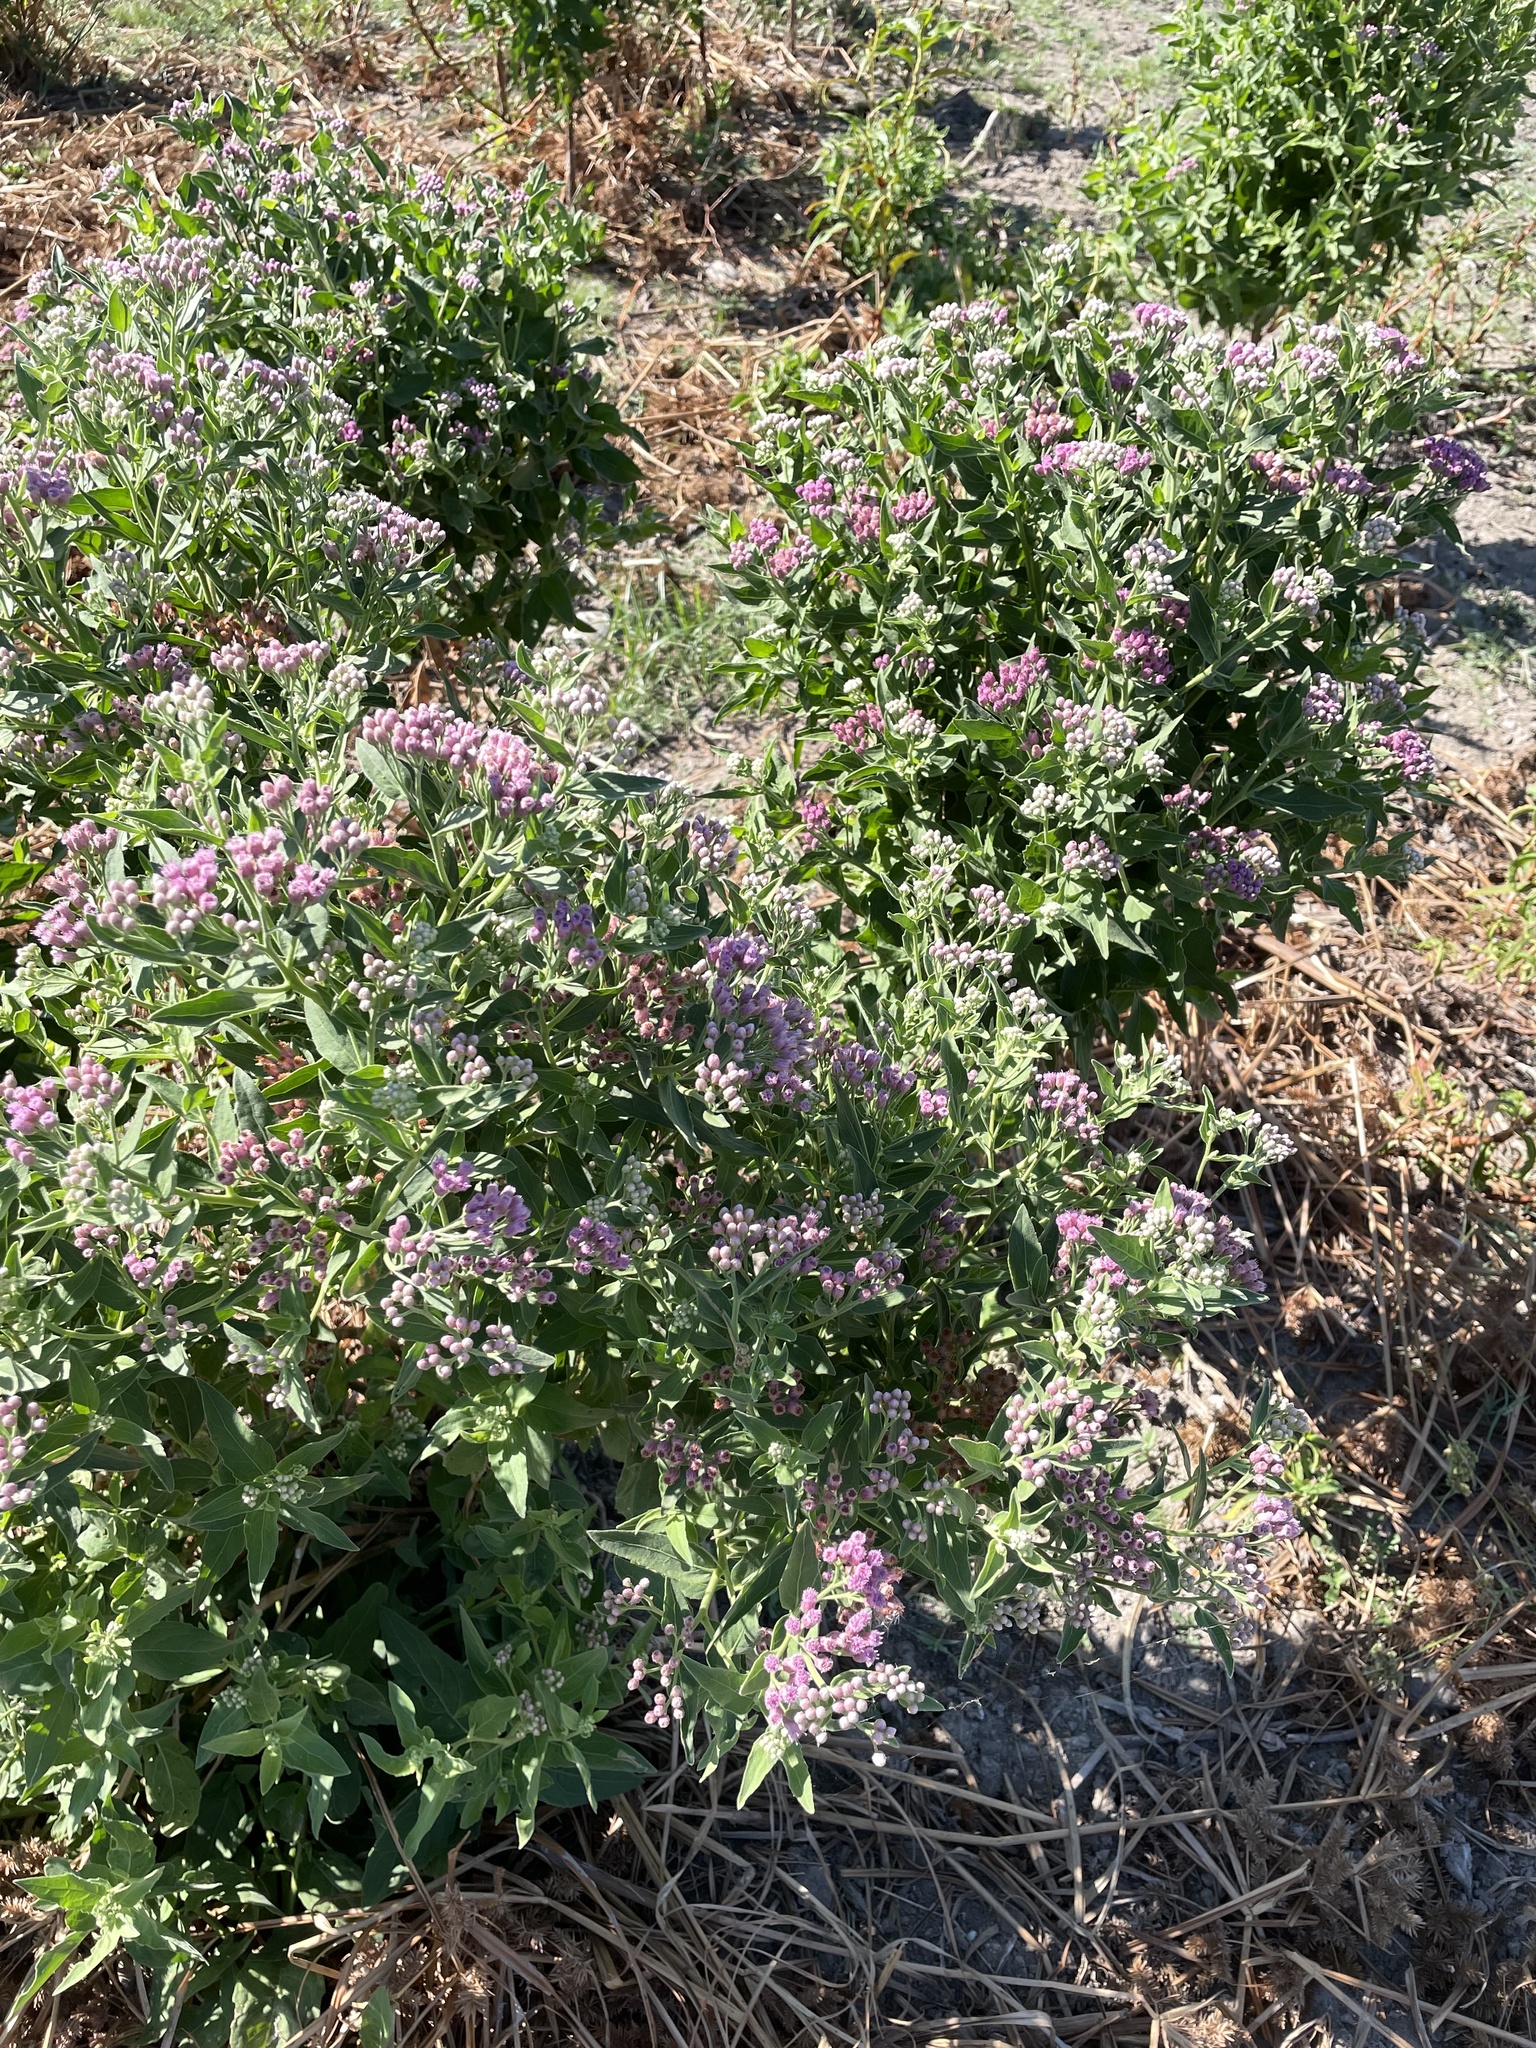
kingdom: Plantae
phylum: Tracheophyta
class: Magnoliopsida
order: Asterales
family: Asteraceae
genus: Pluchea
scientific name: Pluchea odorata
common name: Saltmarsh fleabane
